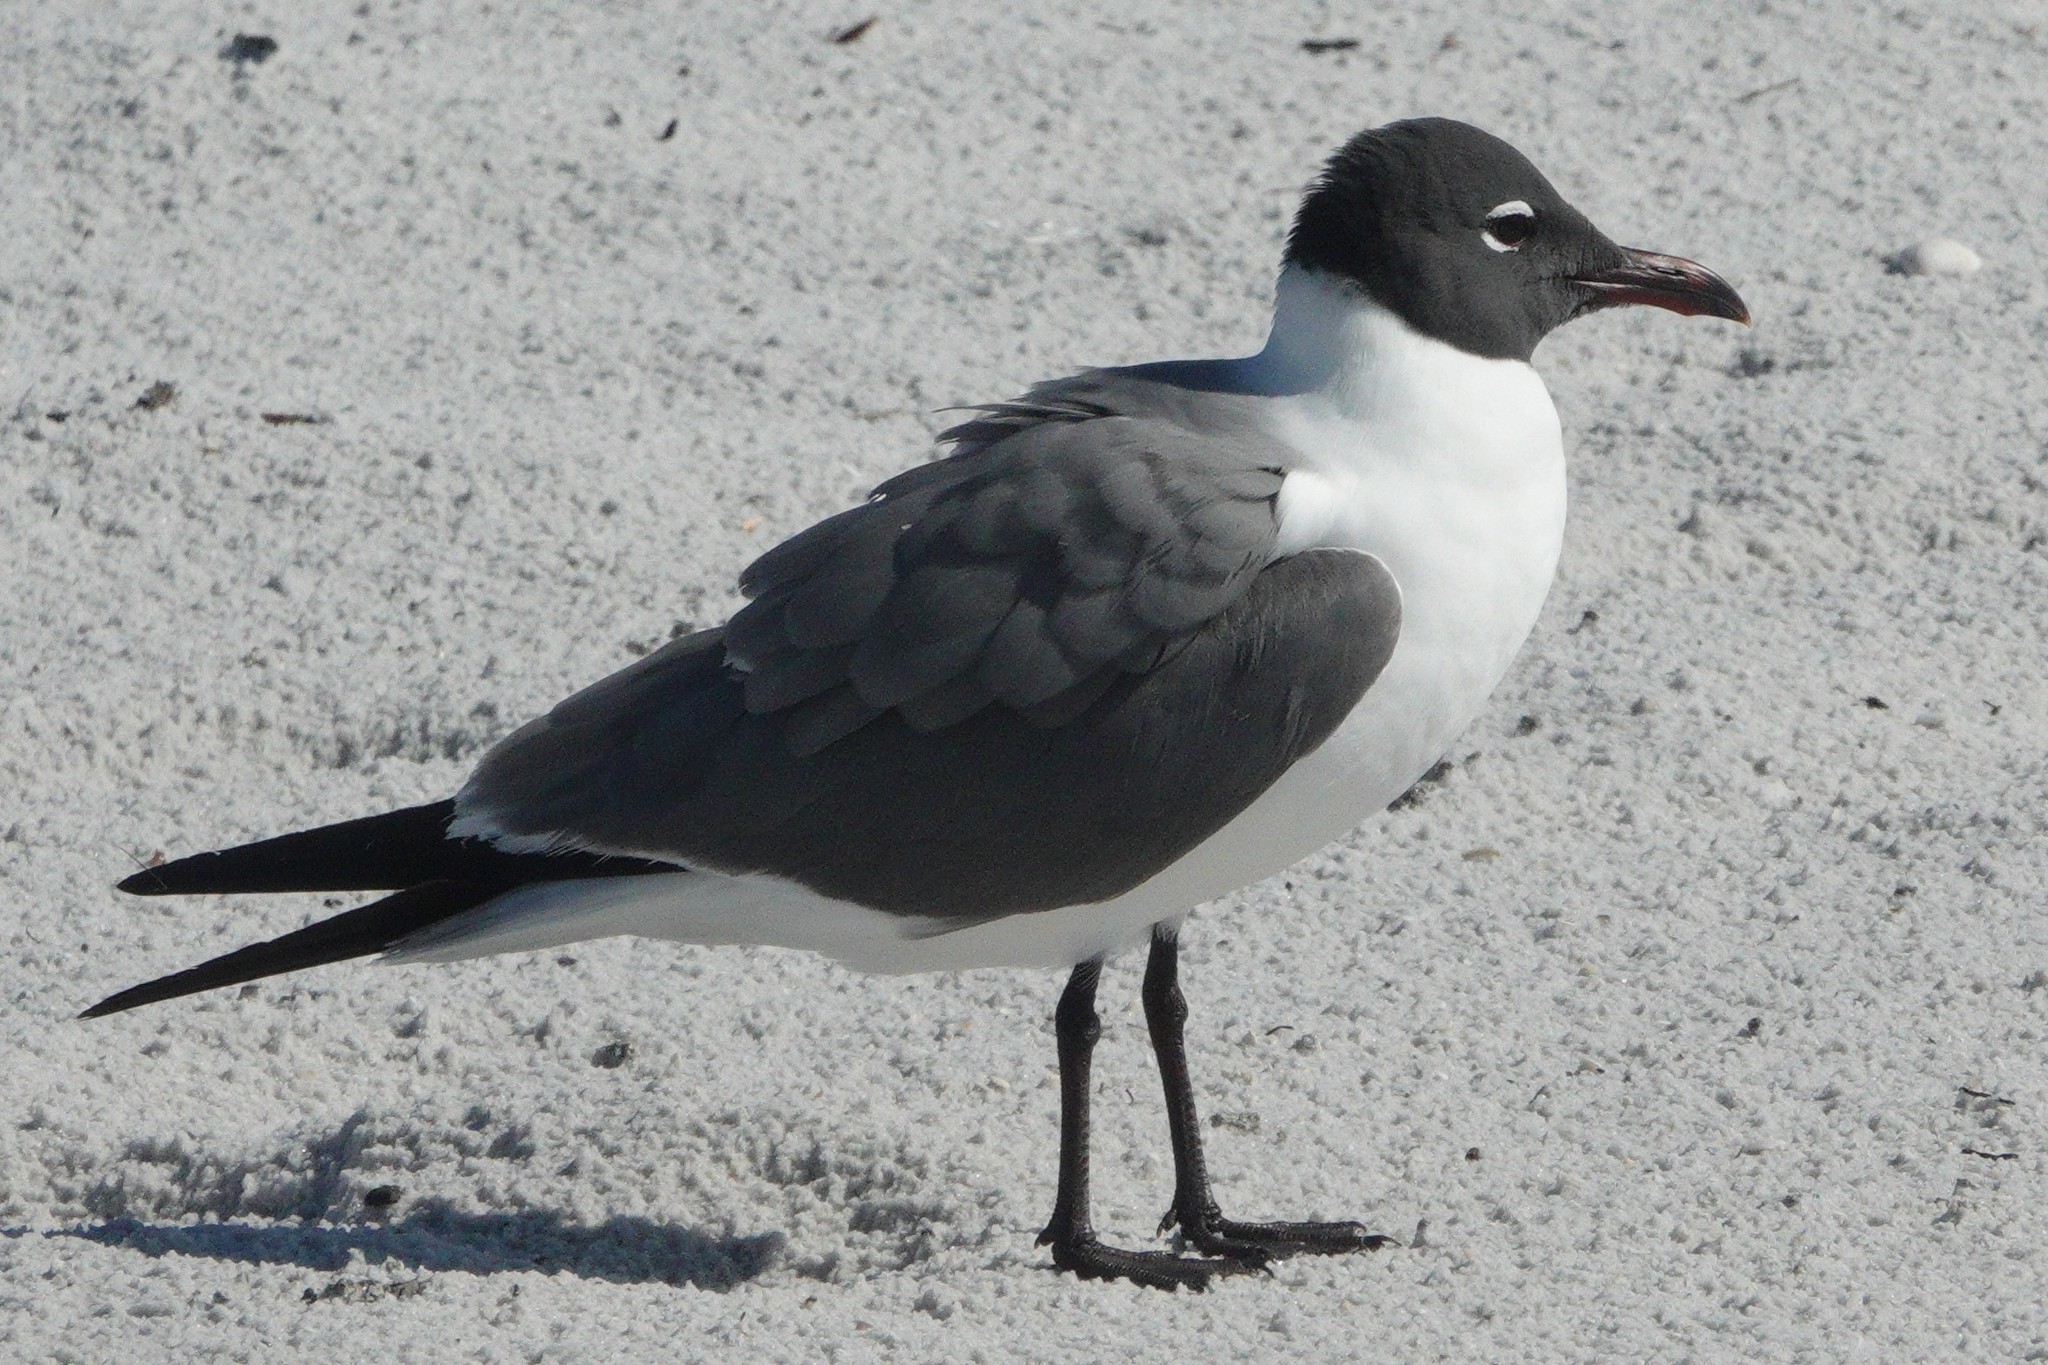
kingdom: Animalia
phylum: Chordata
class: Aves
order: Charadriiformes
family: Laridae
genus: Leucophaeus
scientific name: Leucophaeus atricilla
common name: Laughing gull
